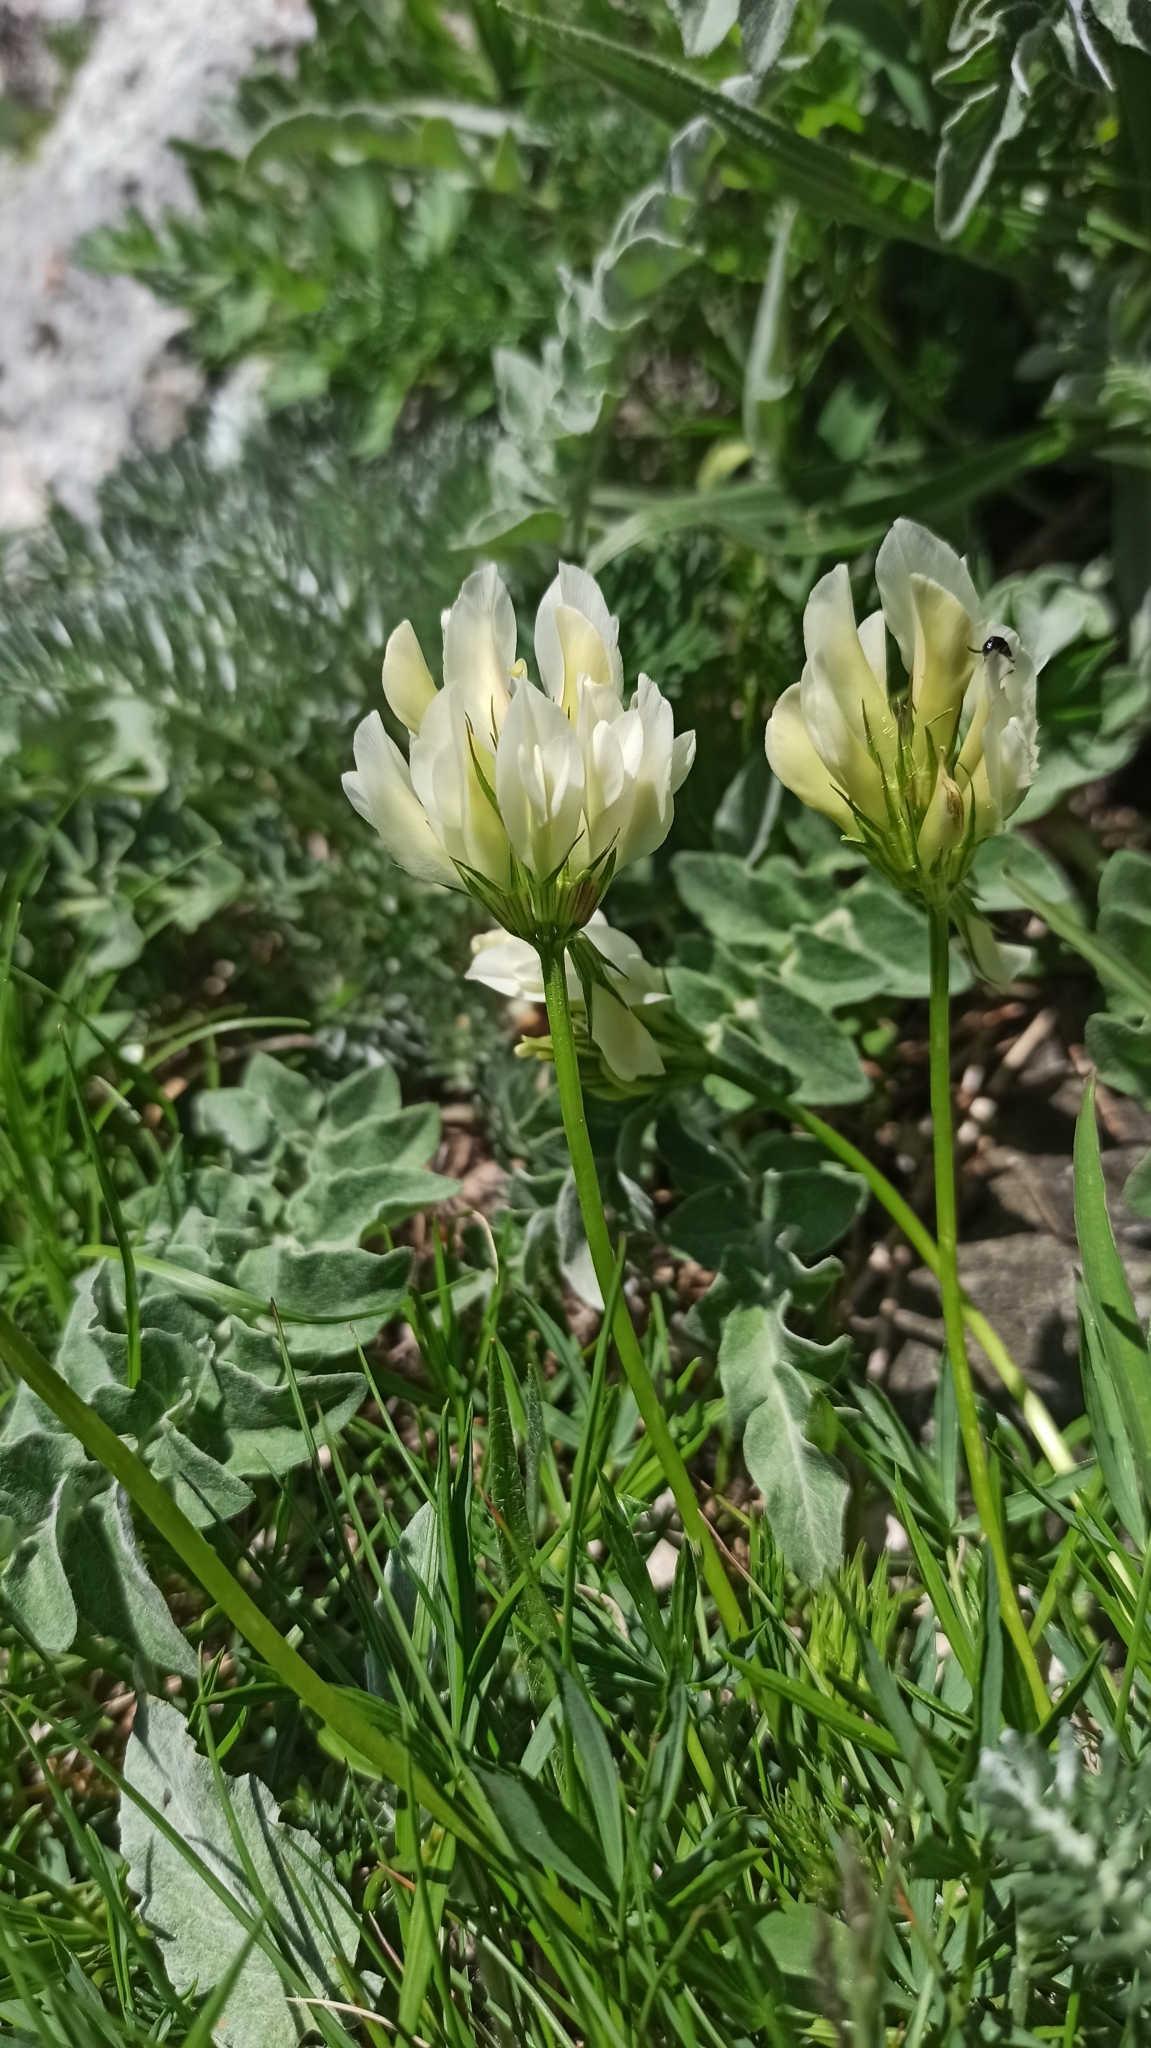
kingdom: Plantae
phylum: Tracheophyta
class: Magnoliopsida
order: Fabales
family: Fabaceae
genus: Trifolium
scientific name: Trifolium polyphyllum
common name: Many-leaf clover
